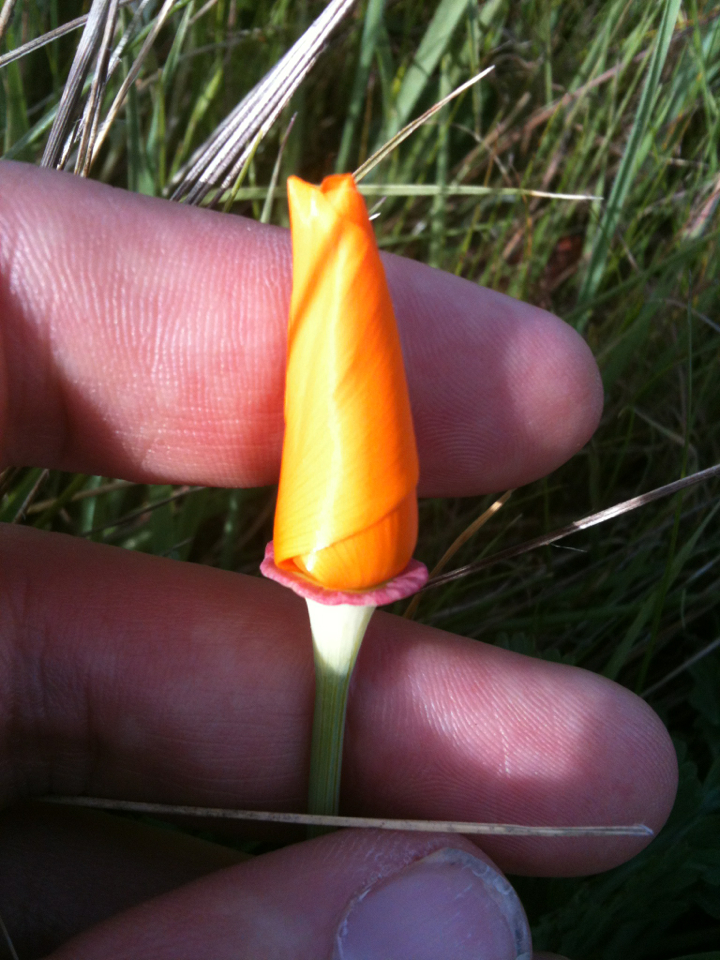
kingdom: Plantae
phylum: Tracheophyta
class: Magnoliopsida
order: Ranunculales
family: Papaveraceae
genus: Eschscholzia
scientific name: Eschscholzia californica
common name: California poppy
